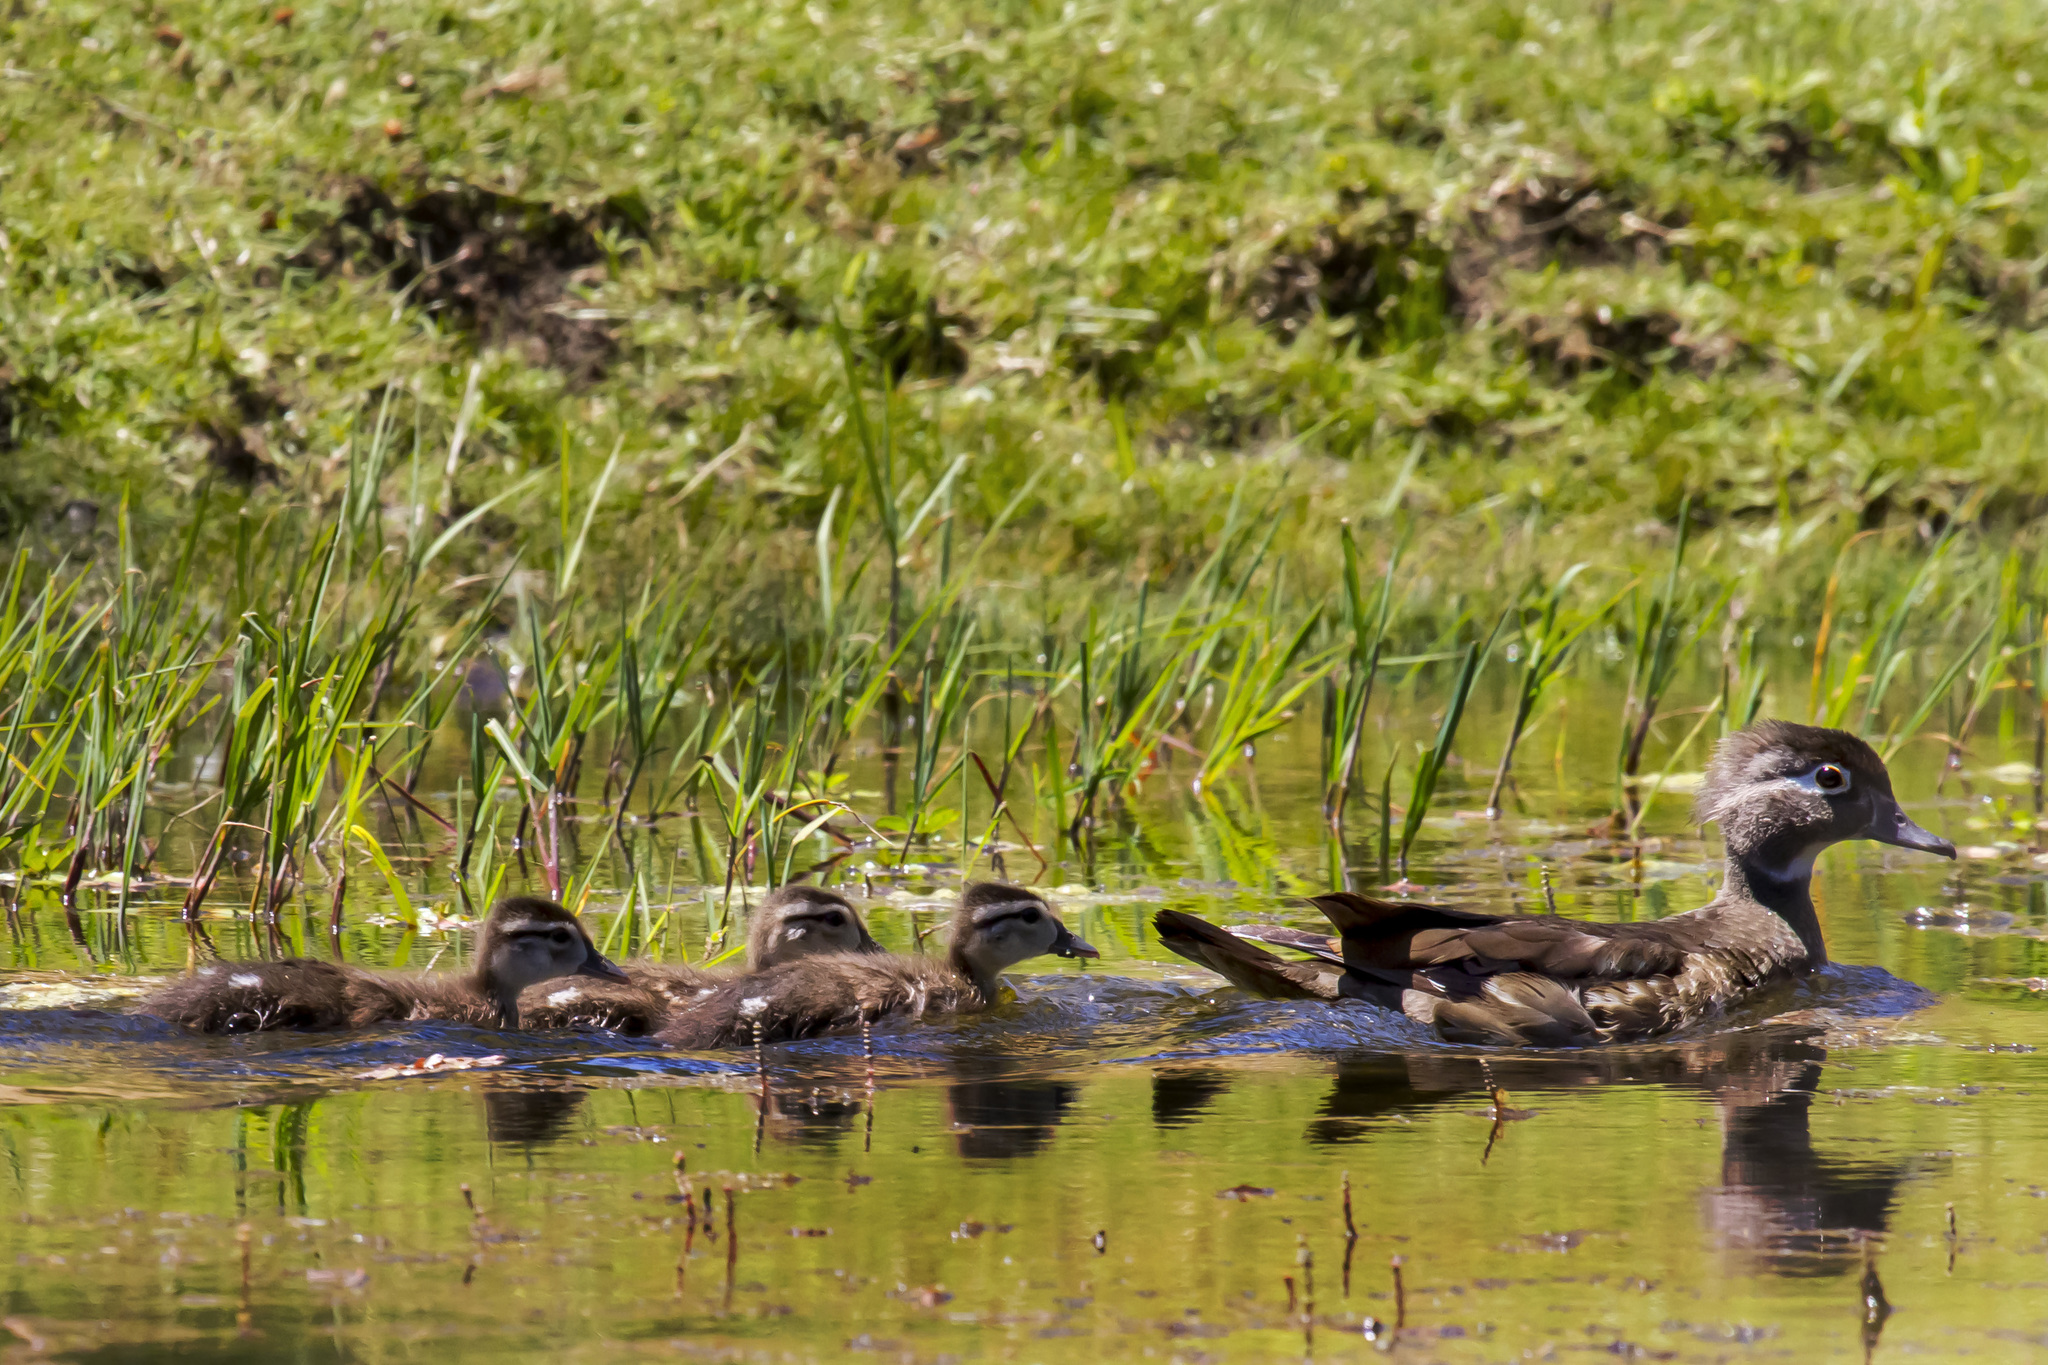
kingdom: Animalia
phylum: Chordata
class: Aves
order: Anseriformes
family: Anatidae
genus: Aix
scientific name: Aix sponsa
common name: Wood duck
